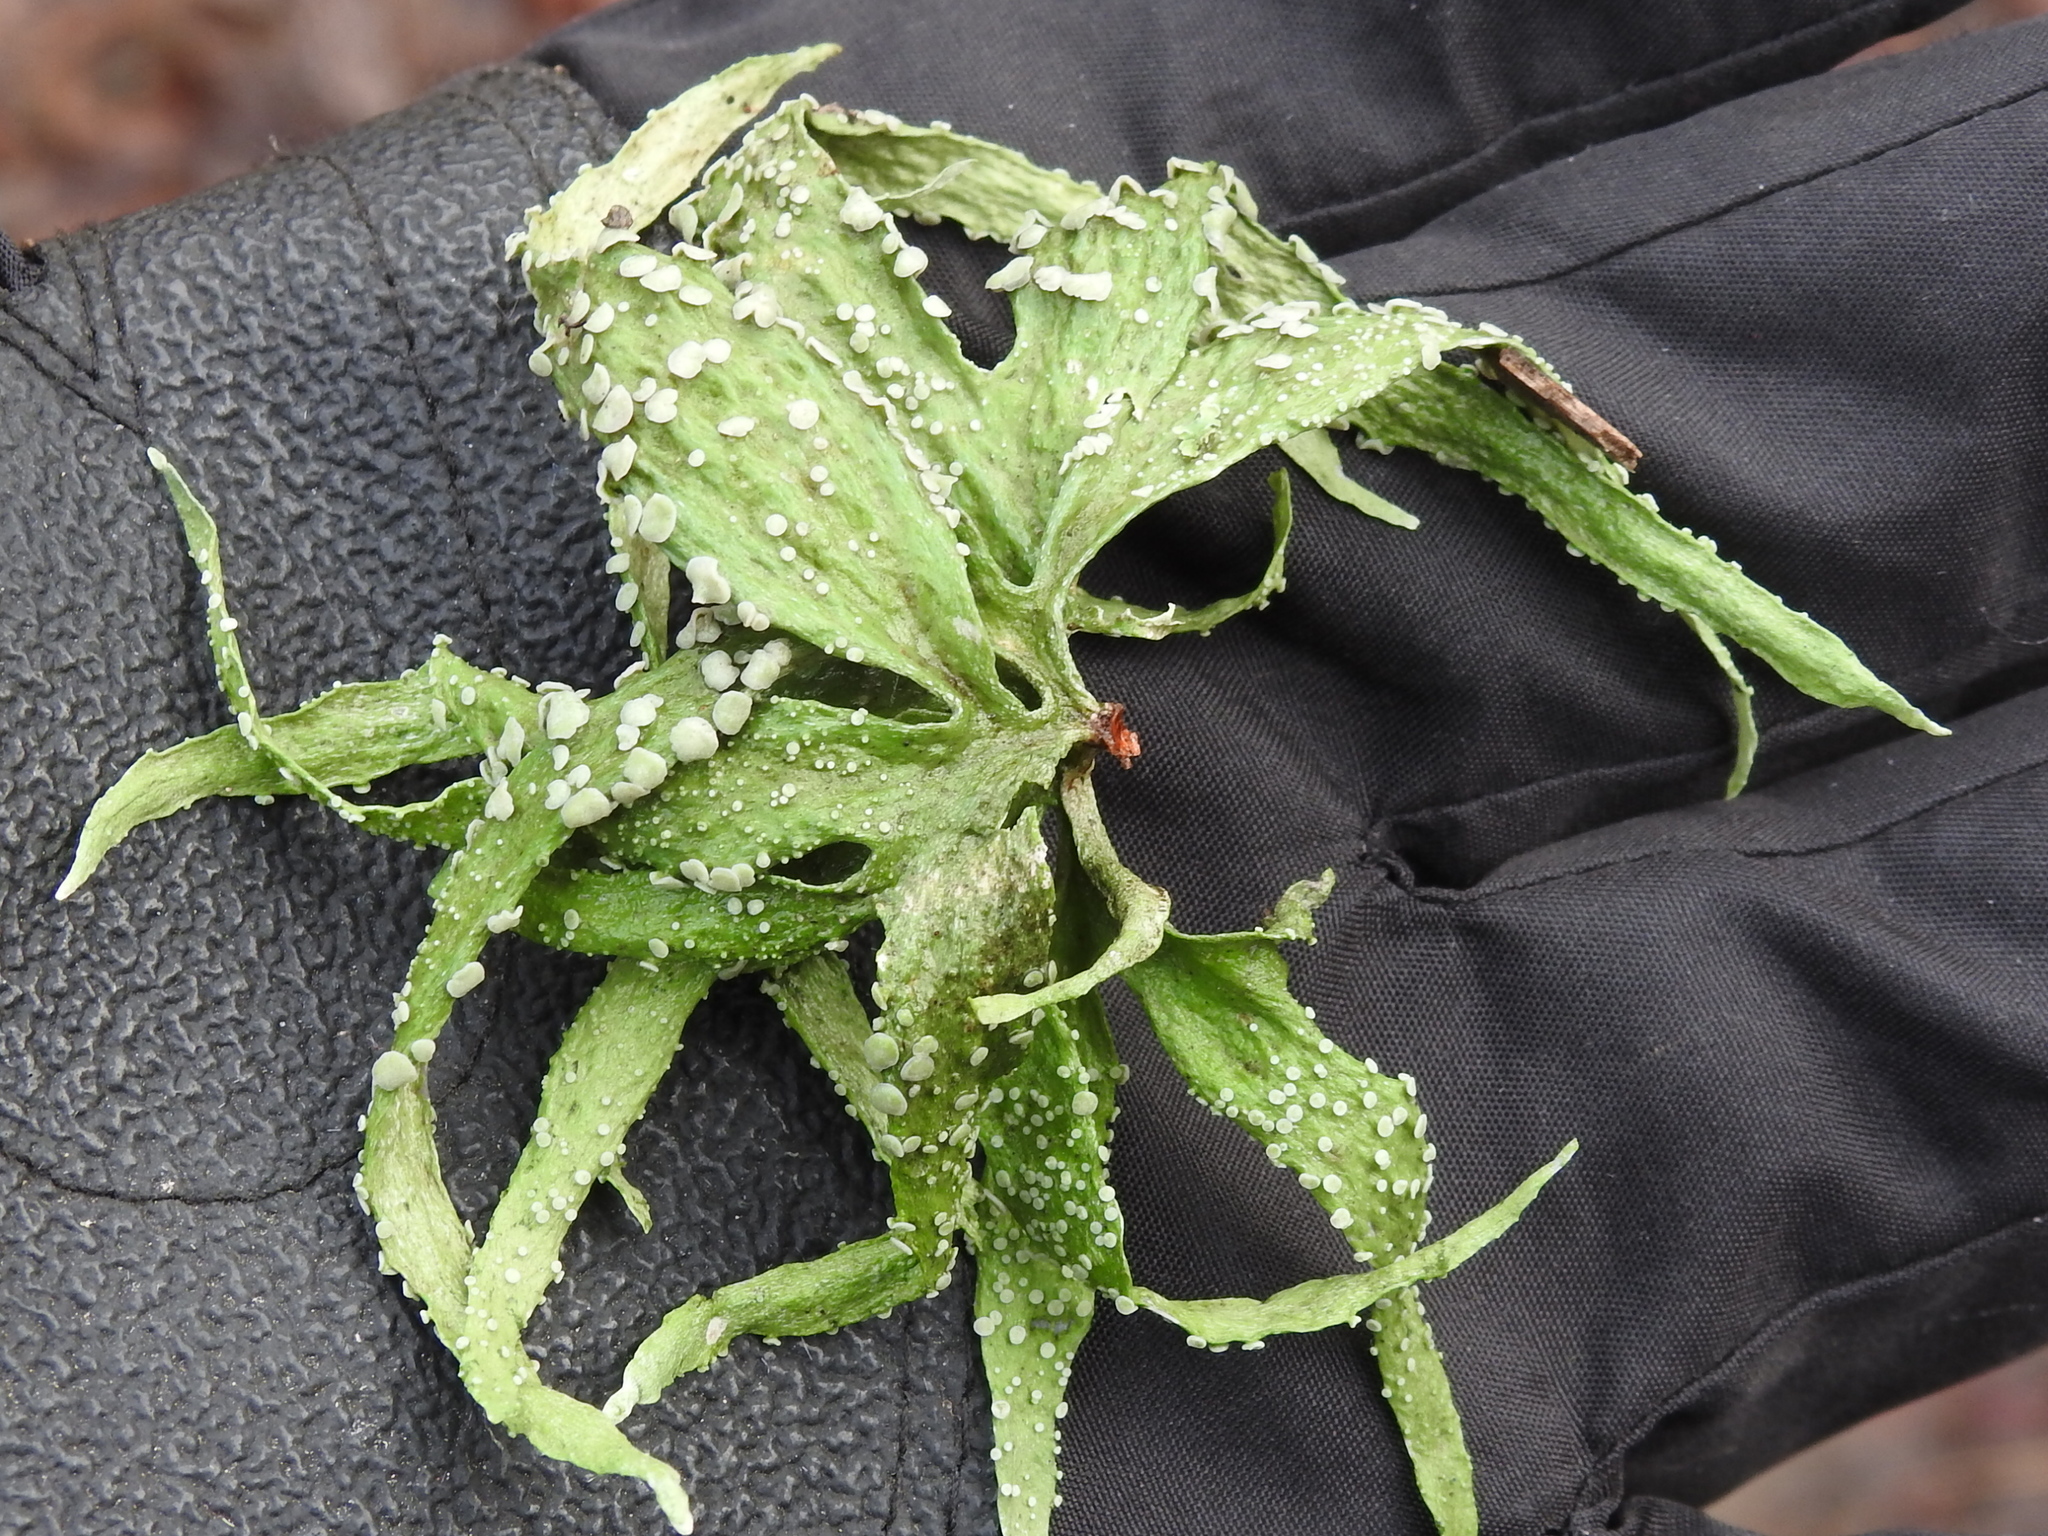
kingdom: Fungi
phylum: Ascomycota
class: Lecanoromycetes
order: Lecanorales
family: Ramalinaceae
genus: Ramalina
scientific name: Ramalina celastri
